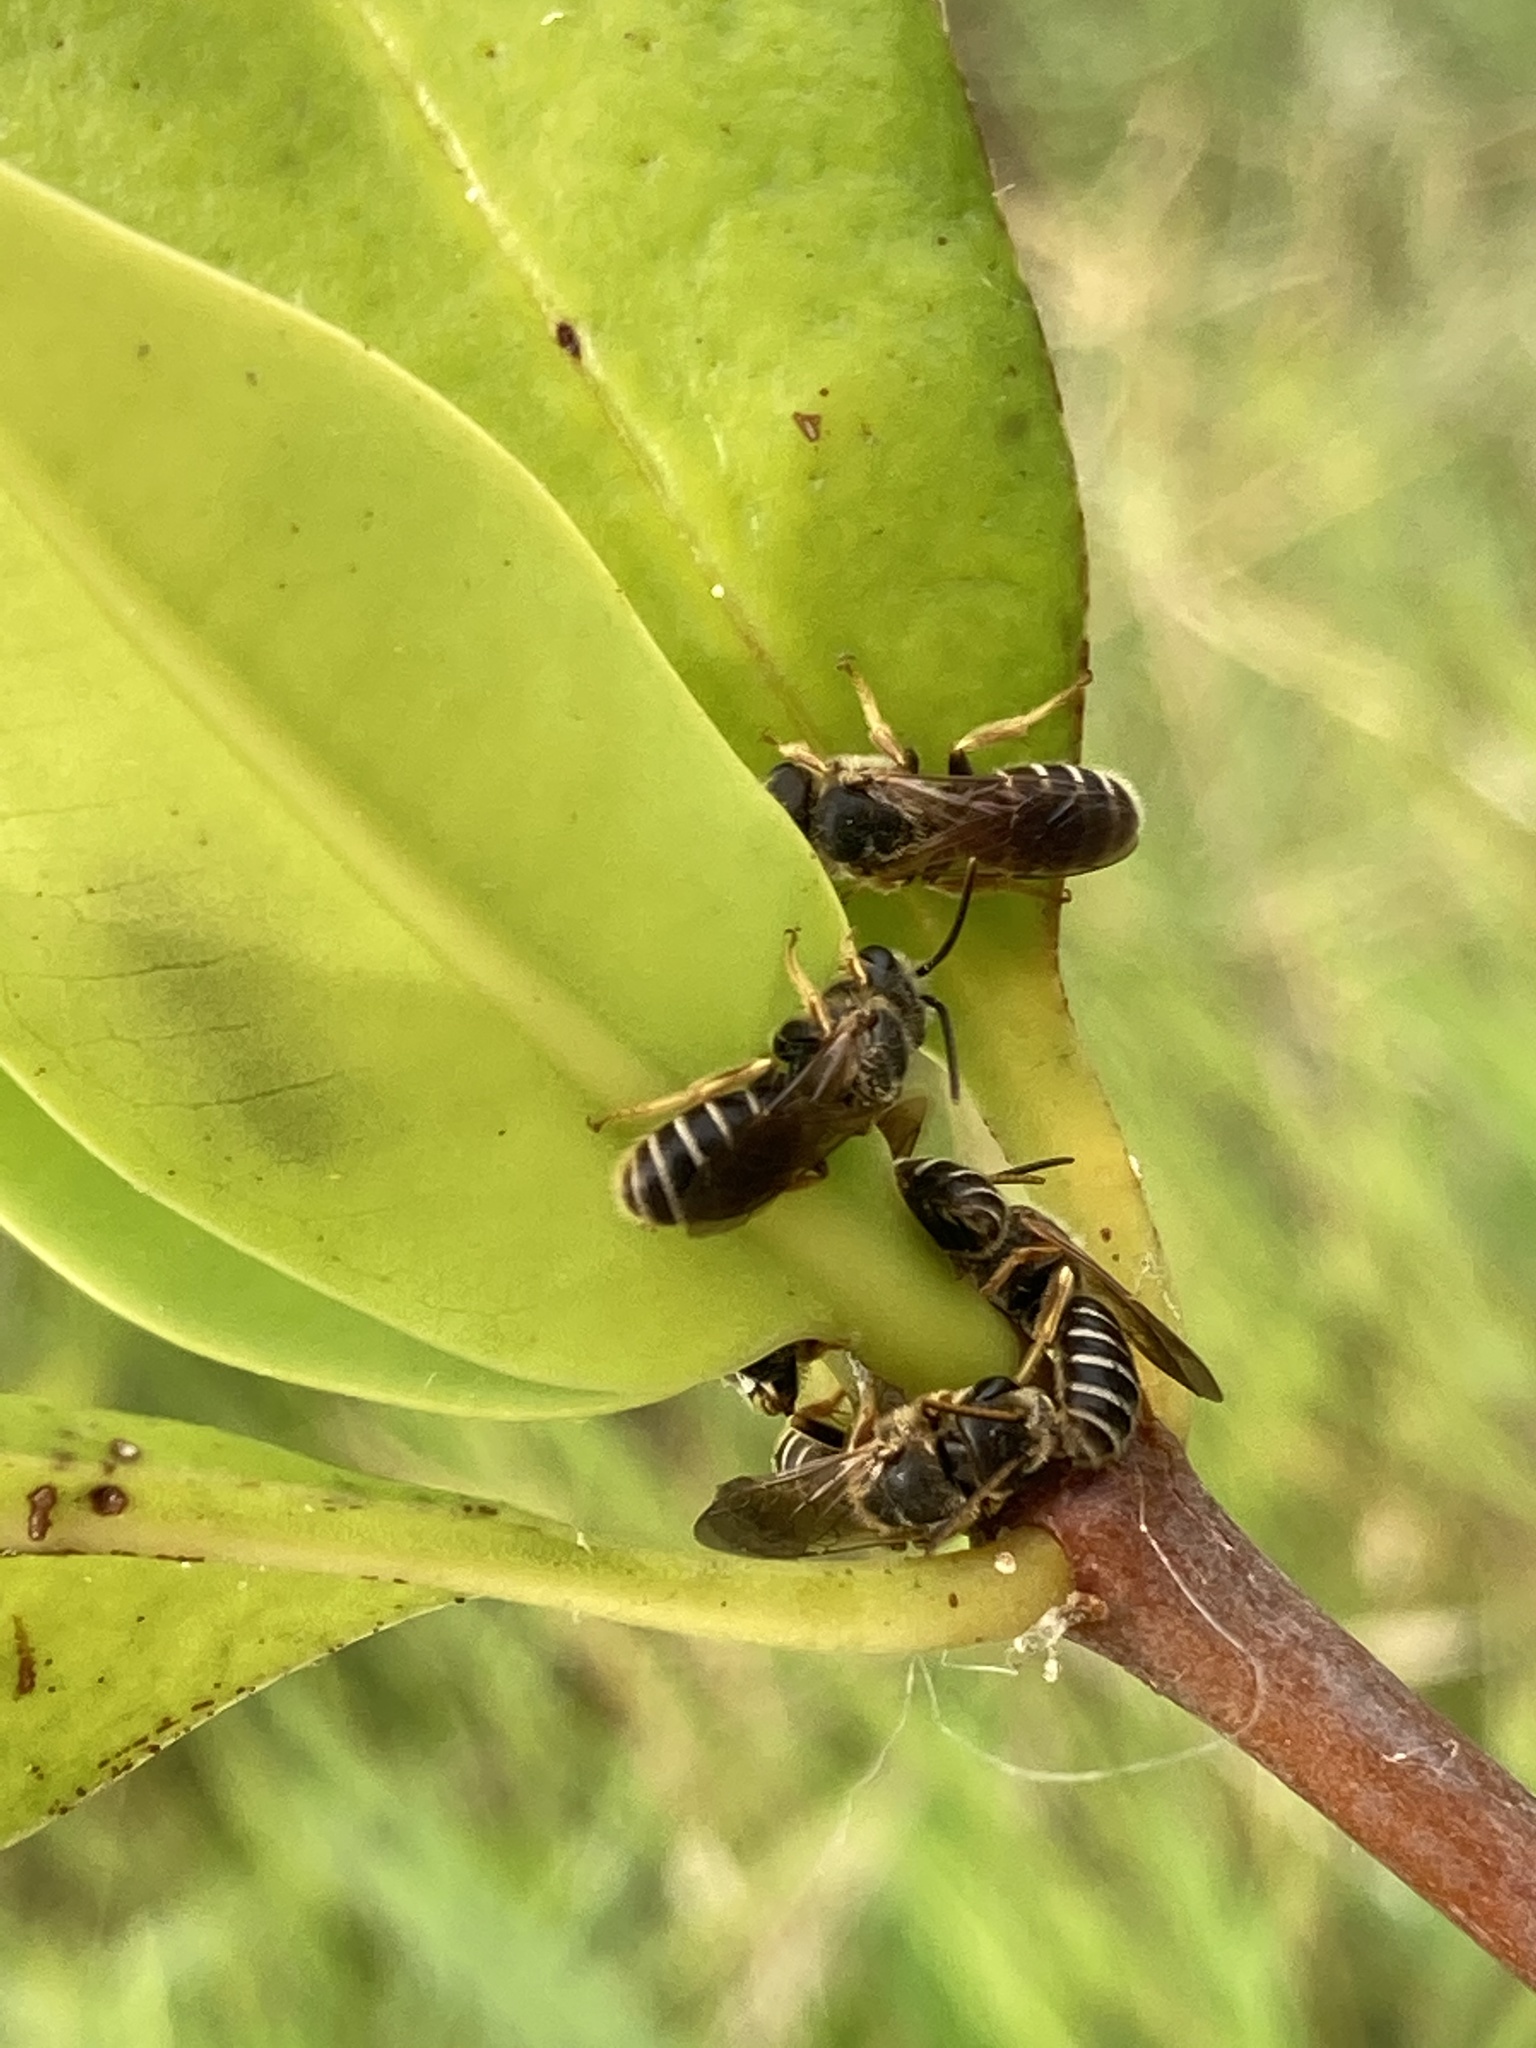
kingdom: Animalia
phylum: Arthropoda
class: Insecta
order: Hymenoptera
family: Halictidae
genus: Halictus
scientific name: Halictus poeyi
